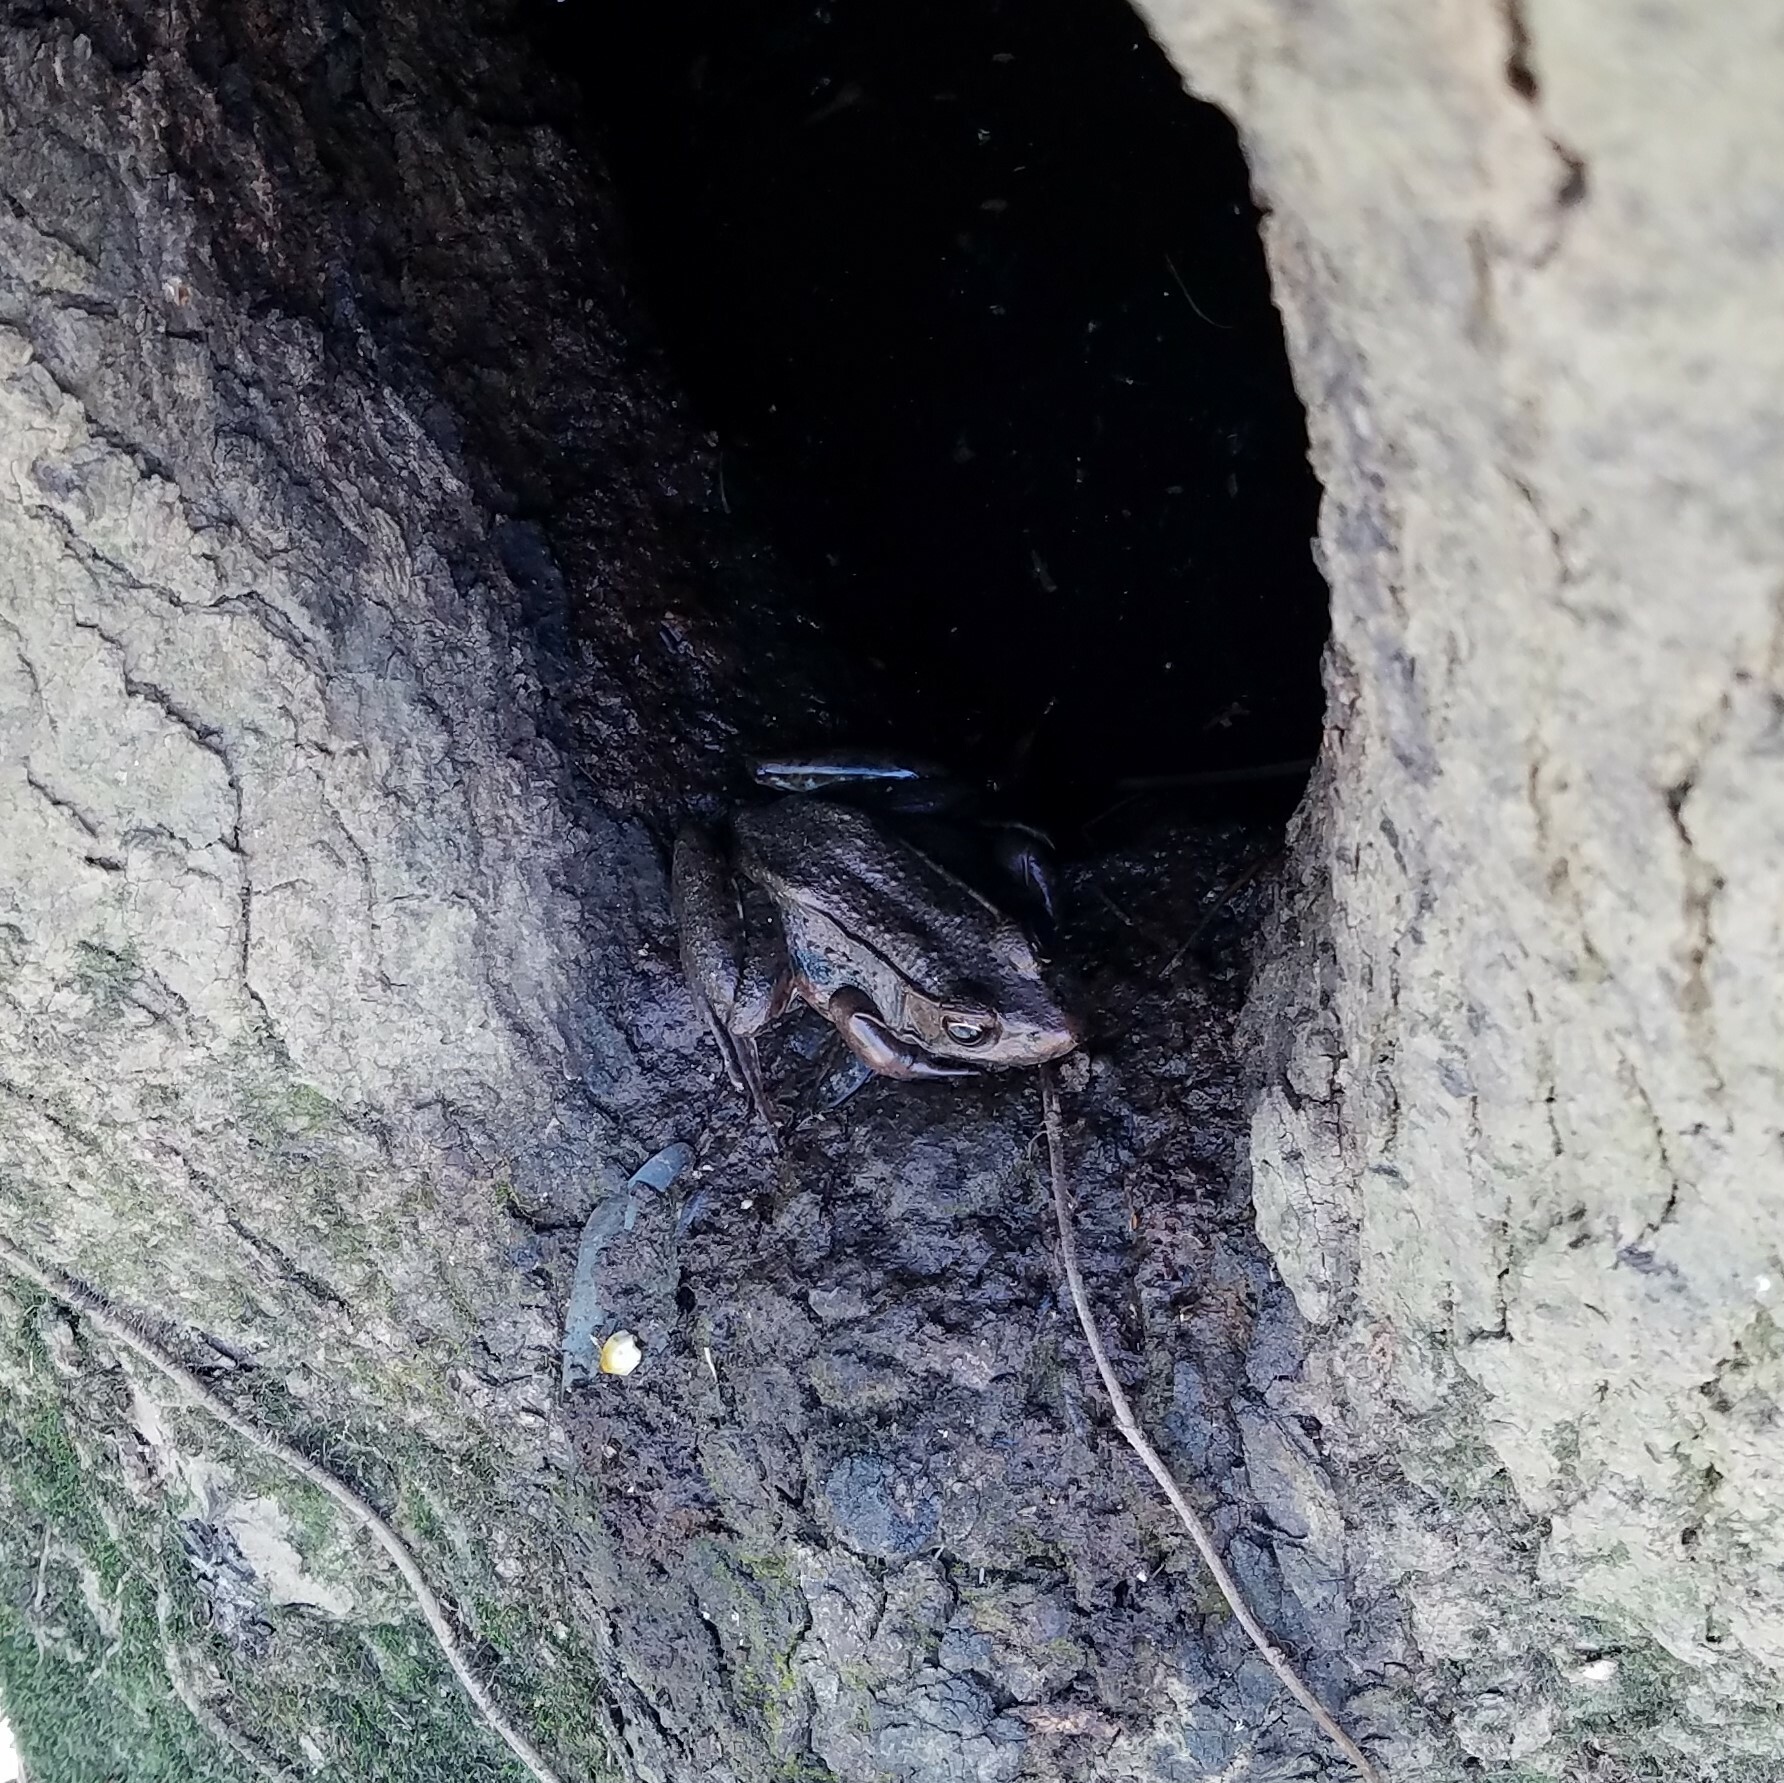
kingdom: Animalia
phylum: Chordata
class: Amphibia
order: Anura
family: Ranidae
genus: Lithobates
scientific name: Lithobates clamitans
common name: Green frog
